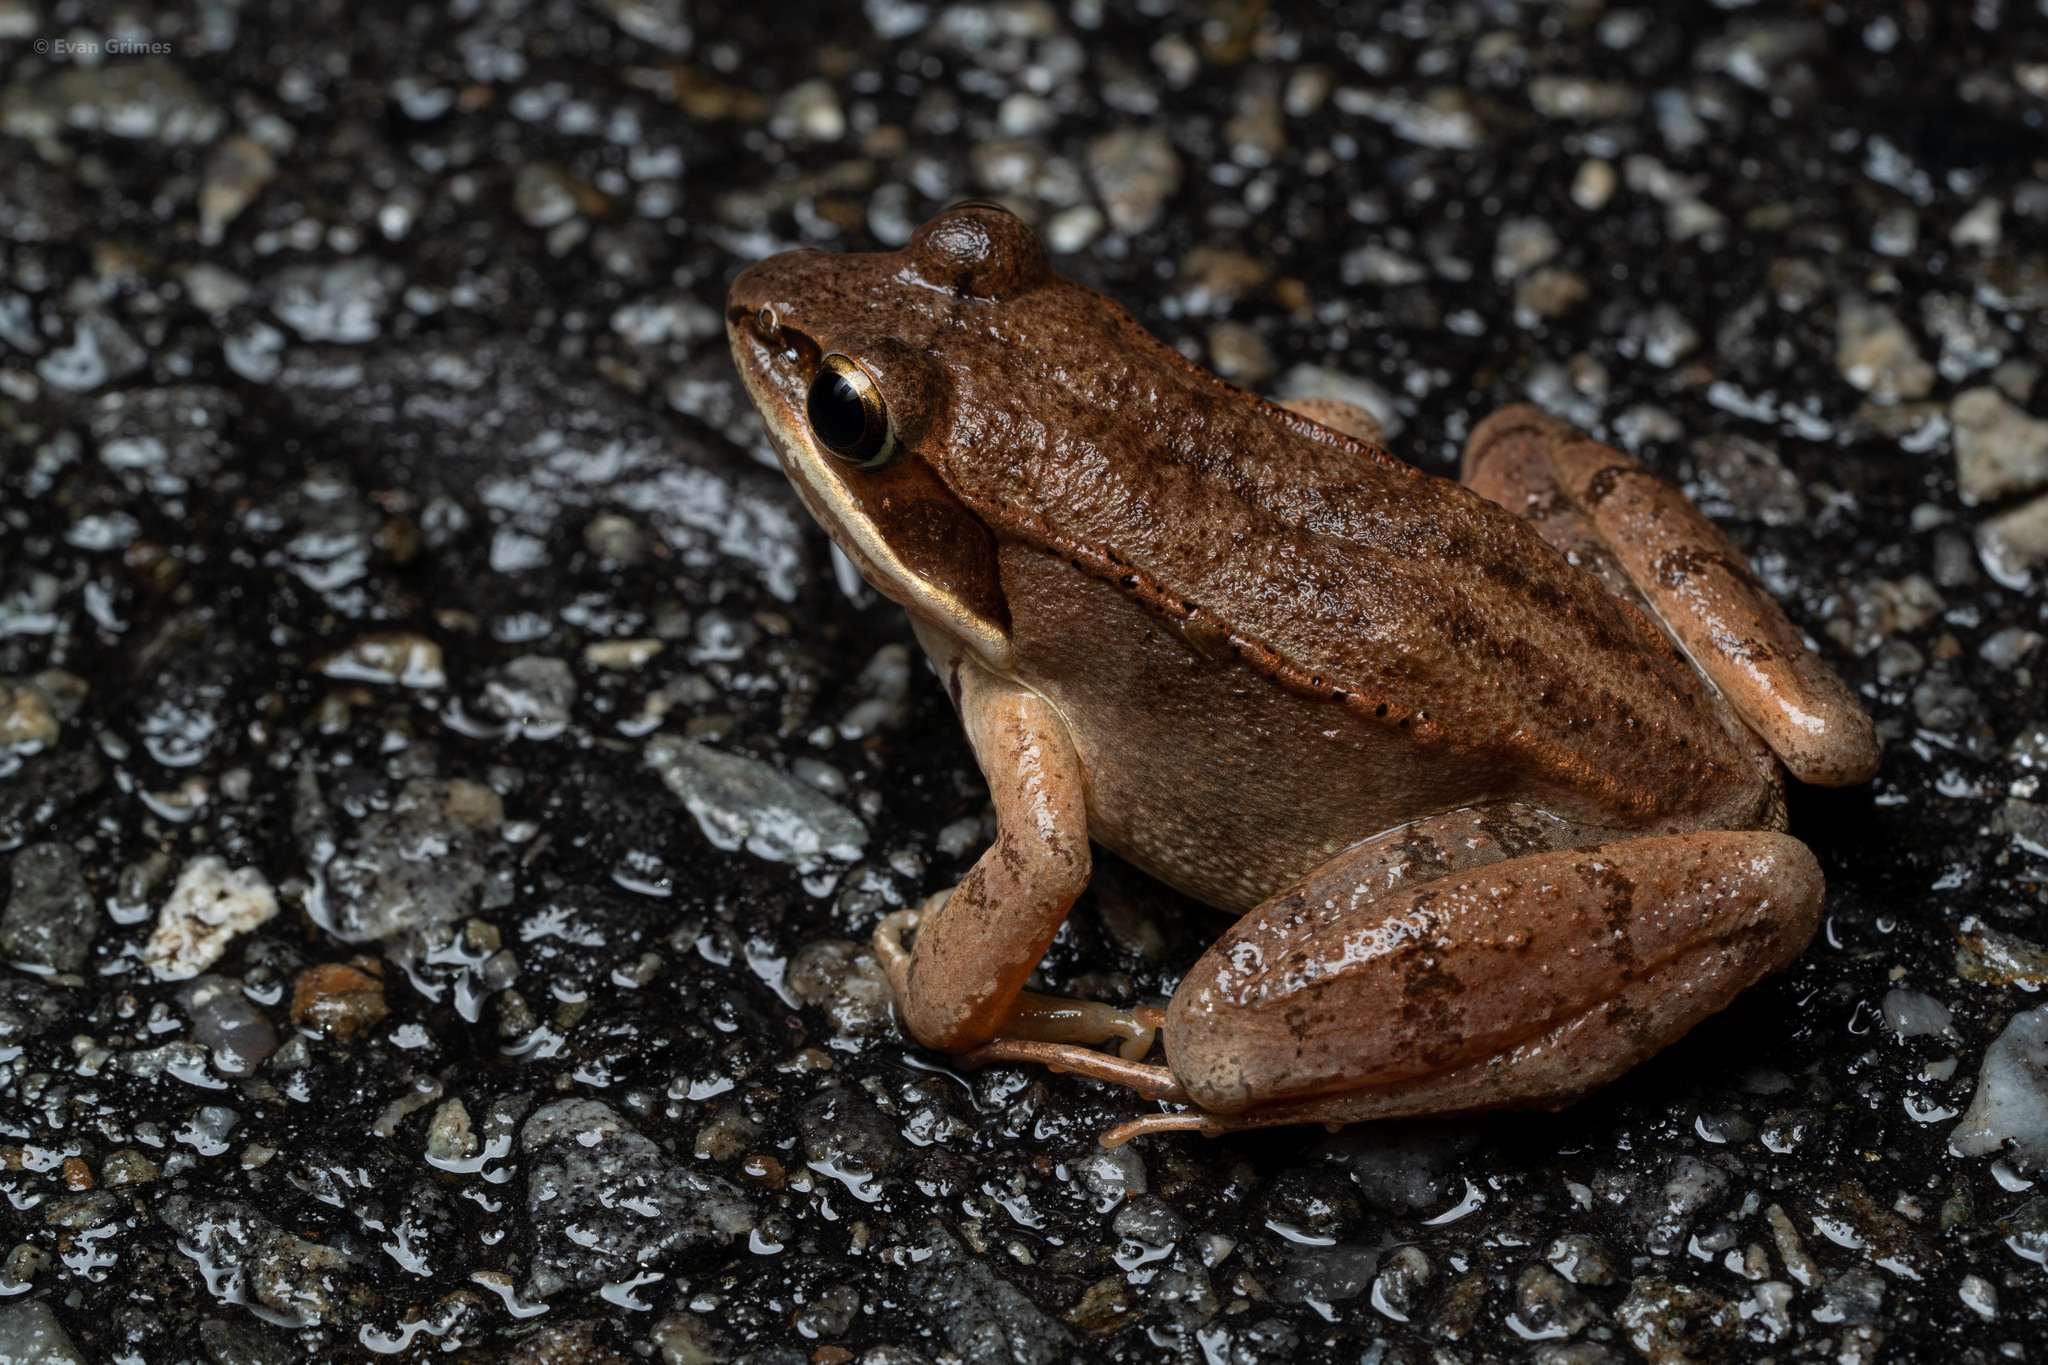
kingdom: Animalia
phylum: Chordata
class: Amphibia
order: Anura
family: Ranidae
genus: Lithobates
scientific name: Lithobates sylvaticus
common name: Wood frog
